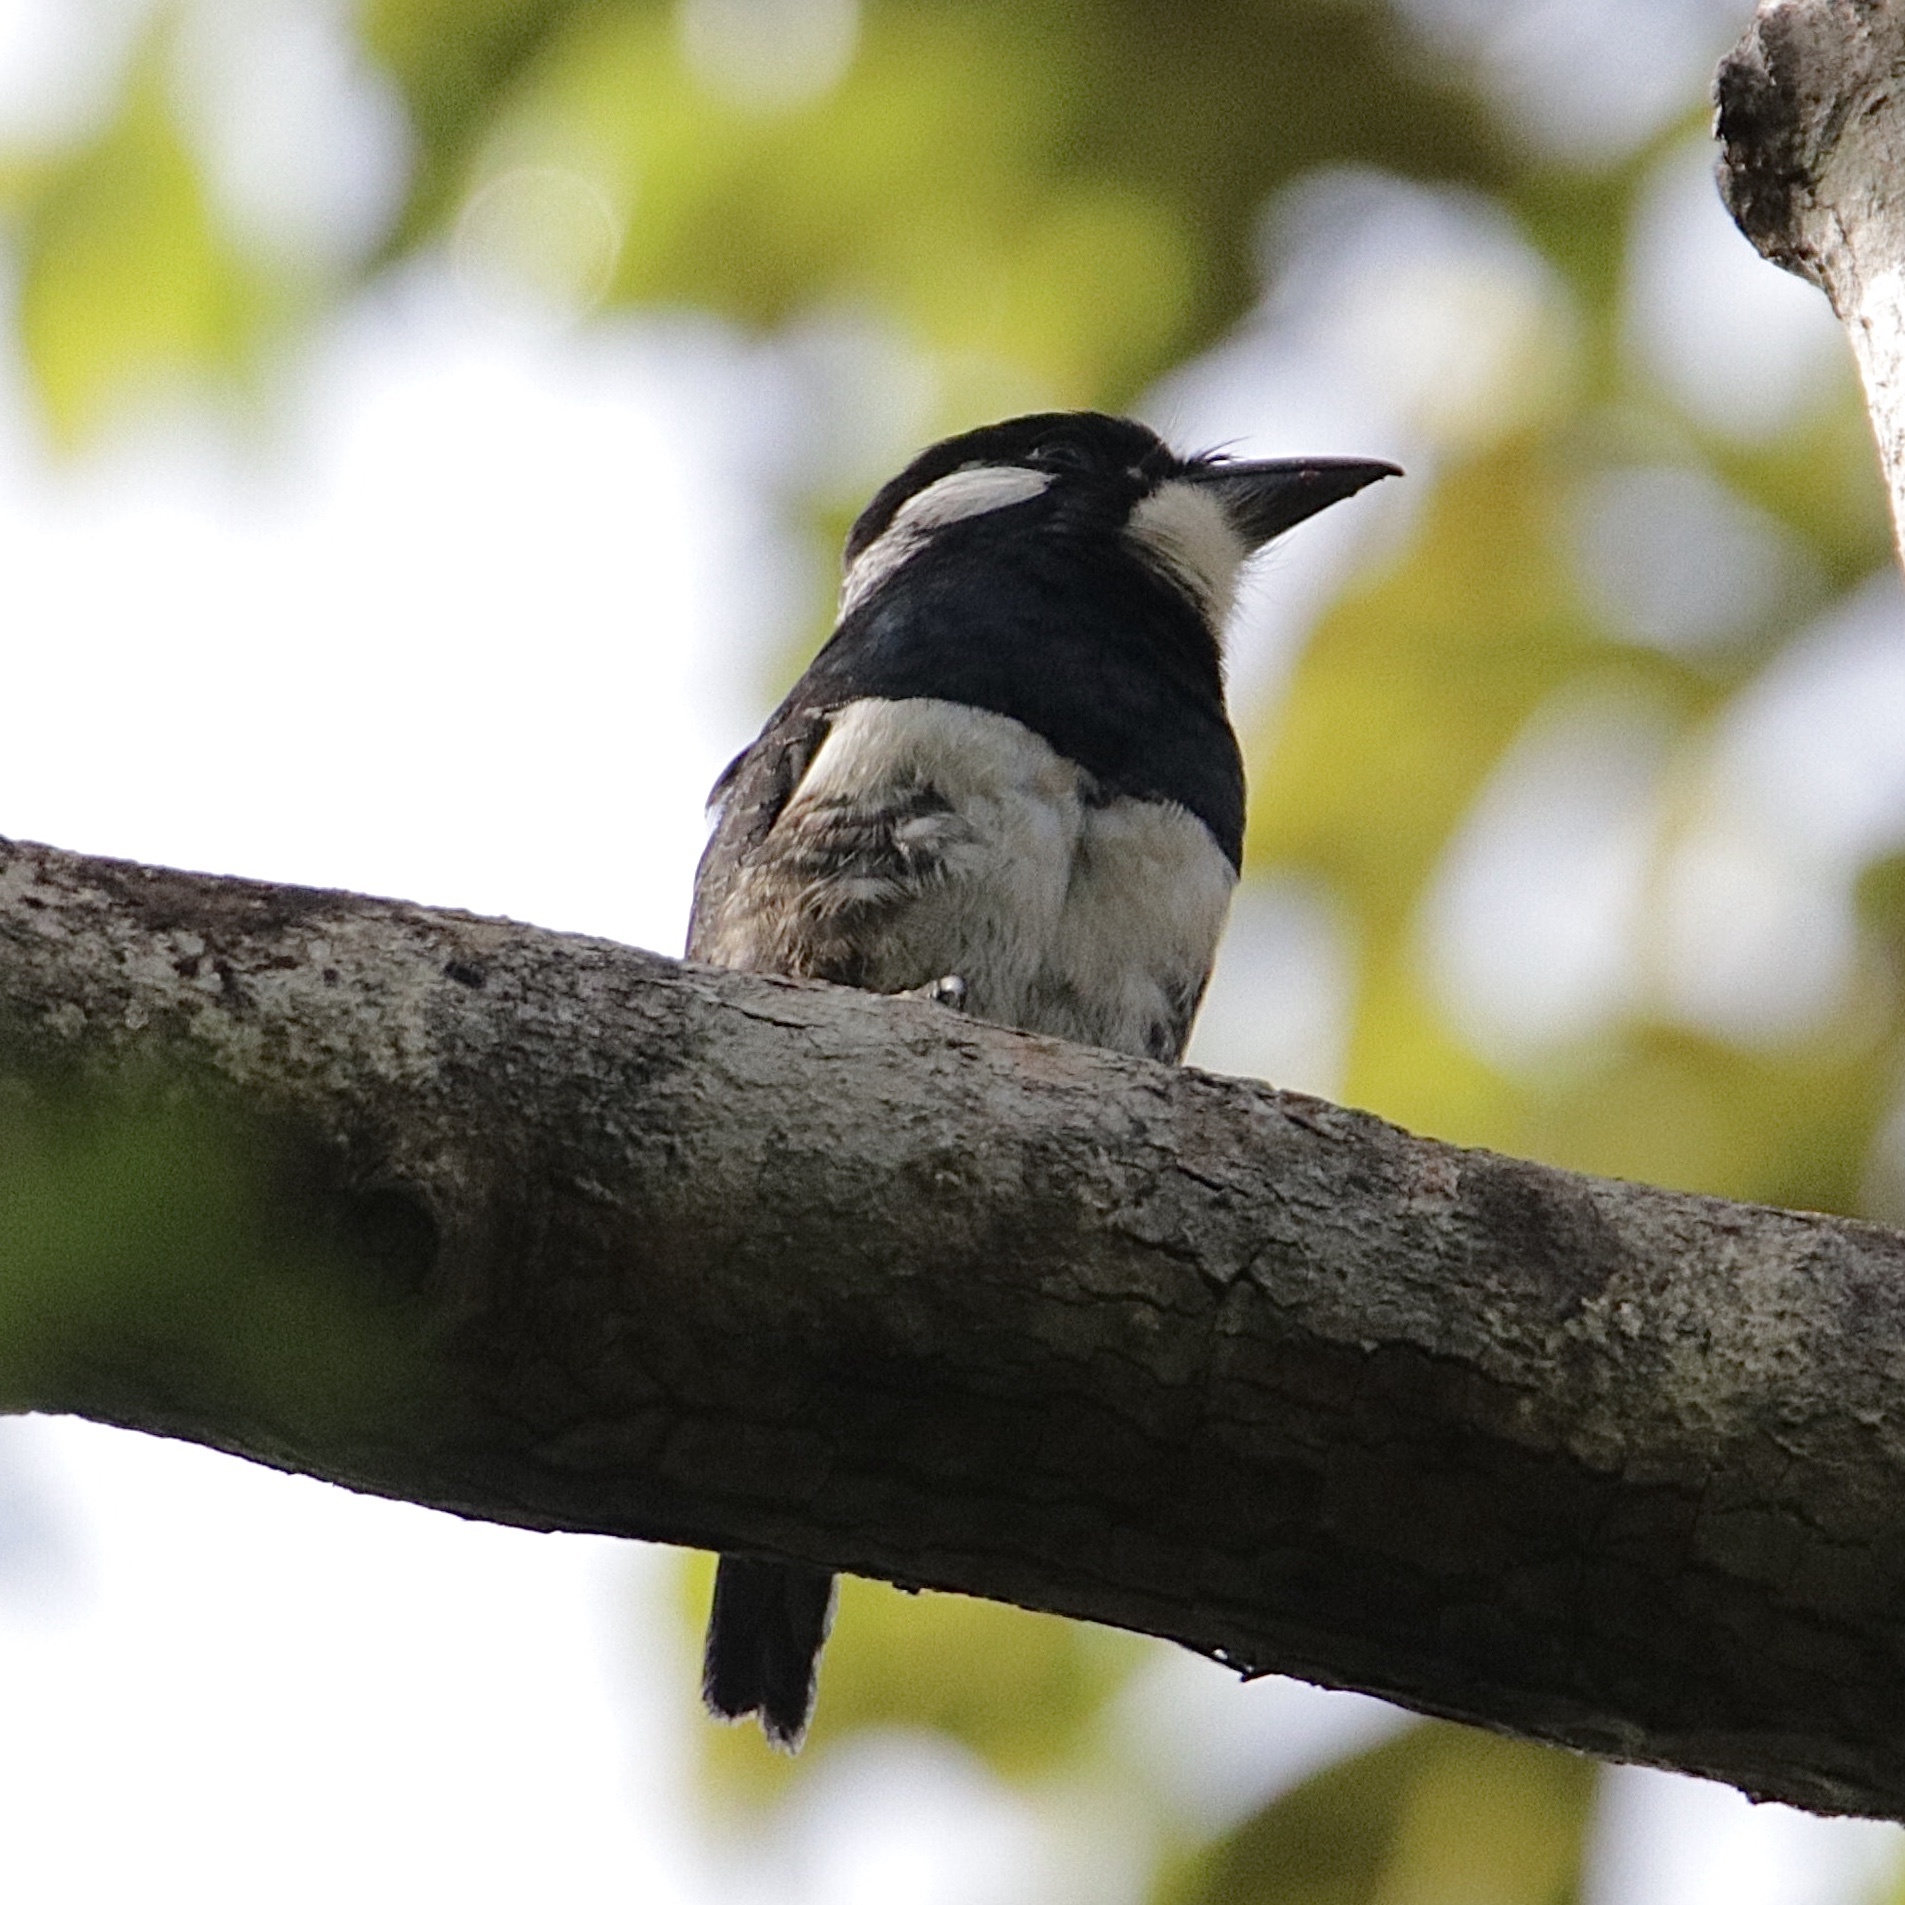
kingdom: Animalia
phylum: Chordata
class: Aves
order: Piciformes
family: Bucconidae
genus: Notharchus
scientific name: Notharchus pectoralis
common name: Black-breasted puffbird
